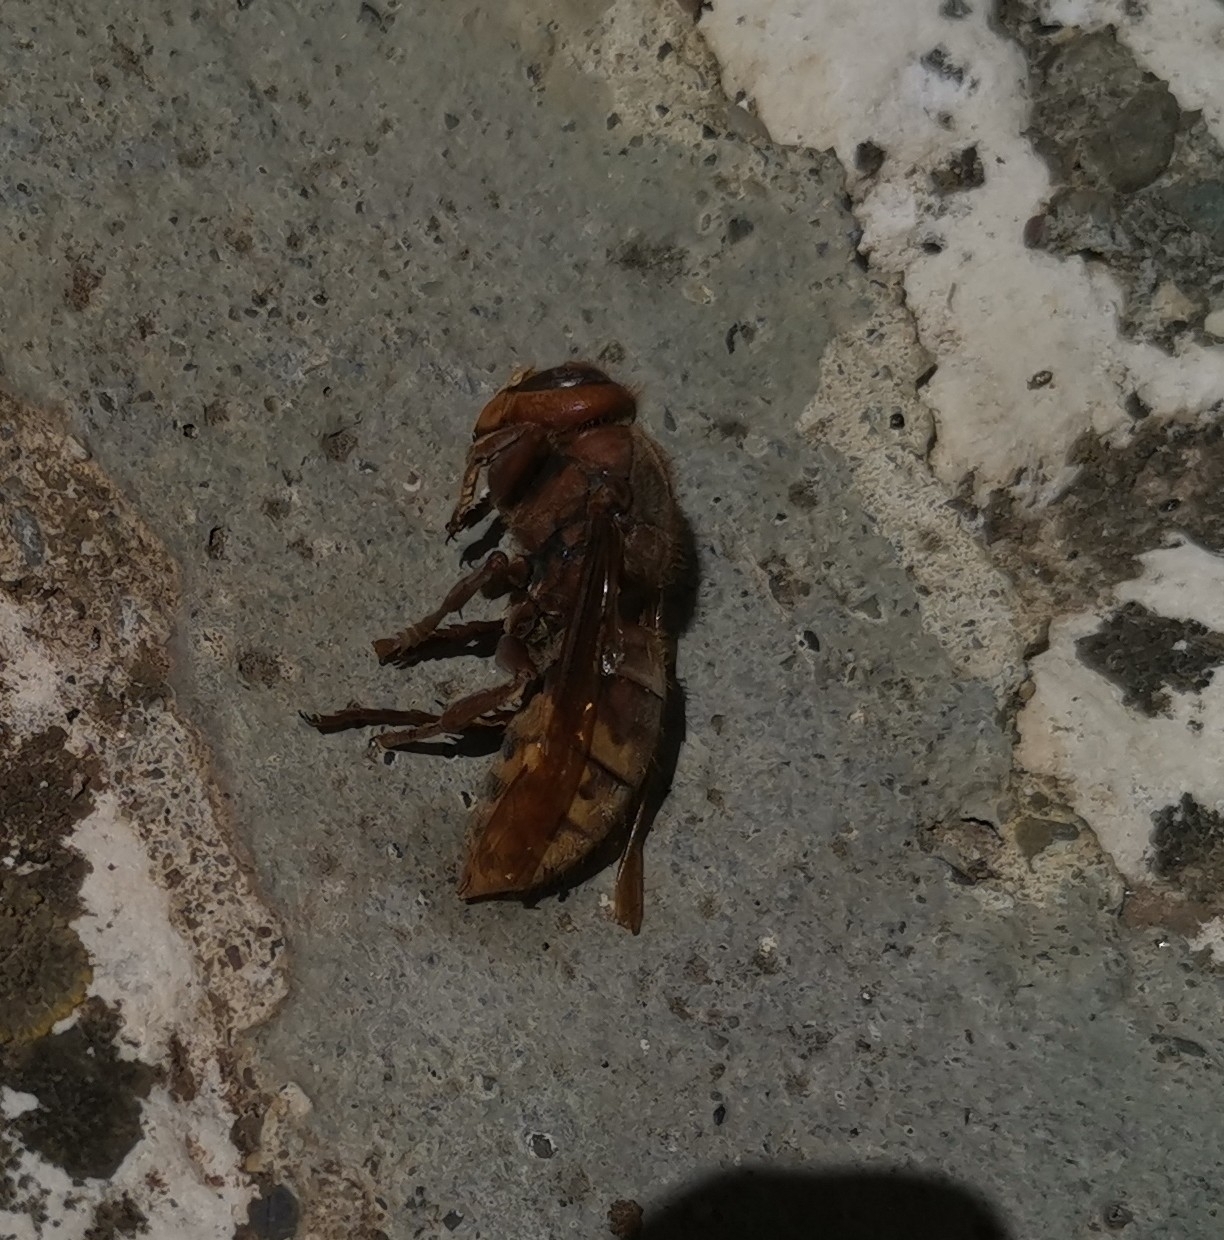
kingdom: Animalia
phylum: Arthropoda
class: Insecta
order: Hymenoptera
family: Vespidae
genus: Vespa
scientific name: Vespa crabro
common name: Hornet
